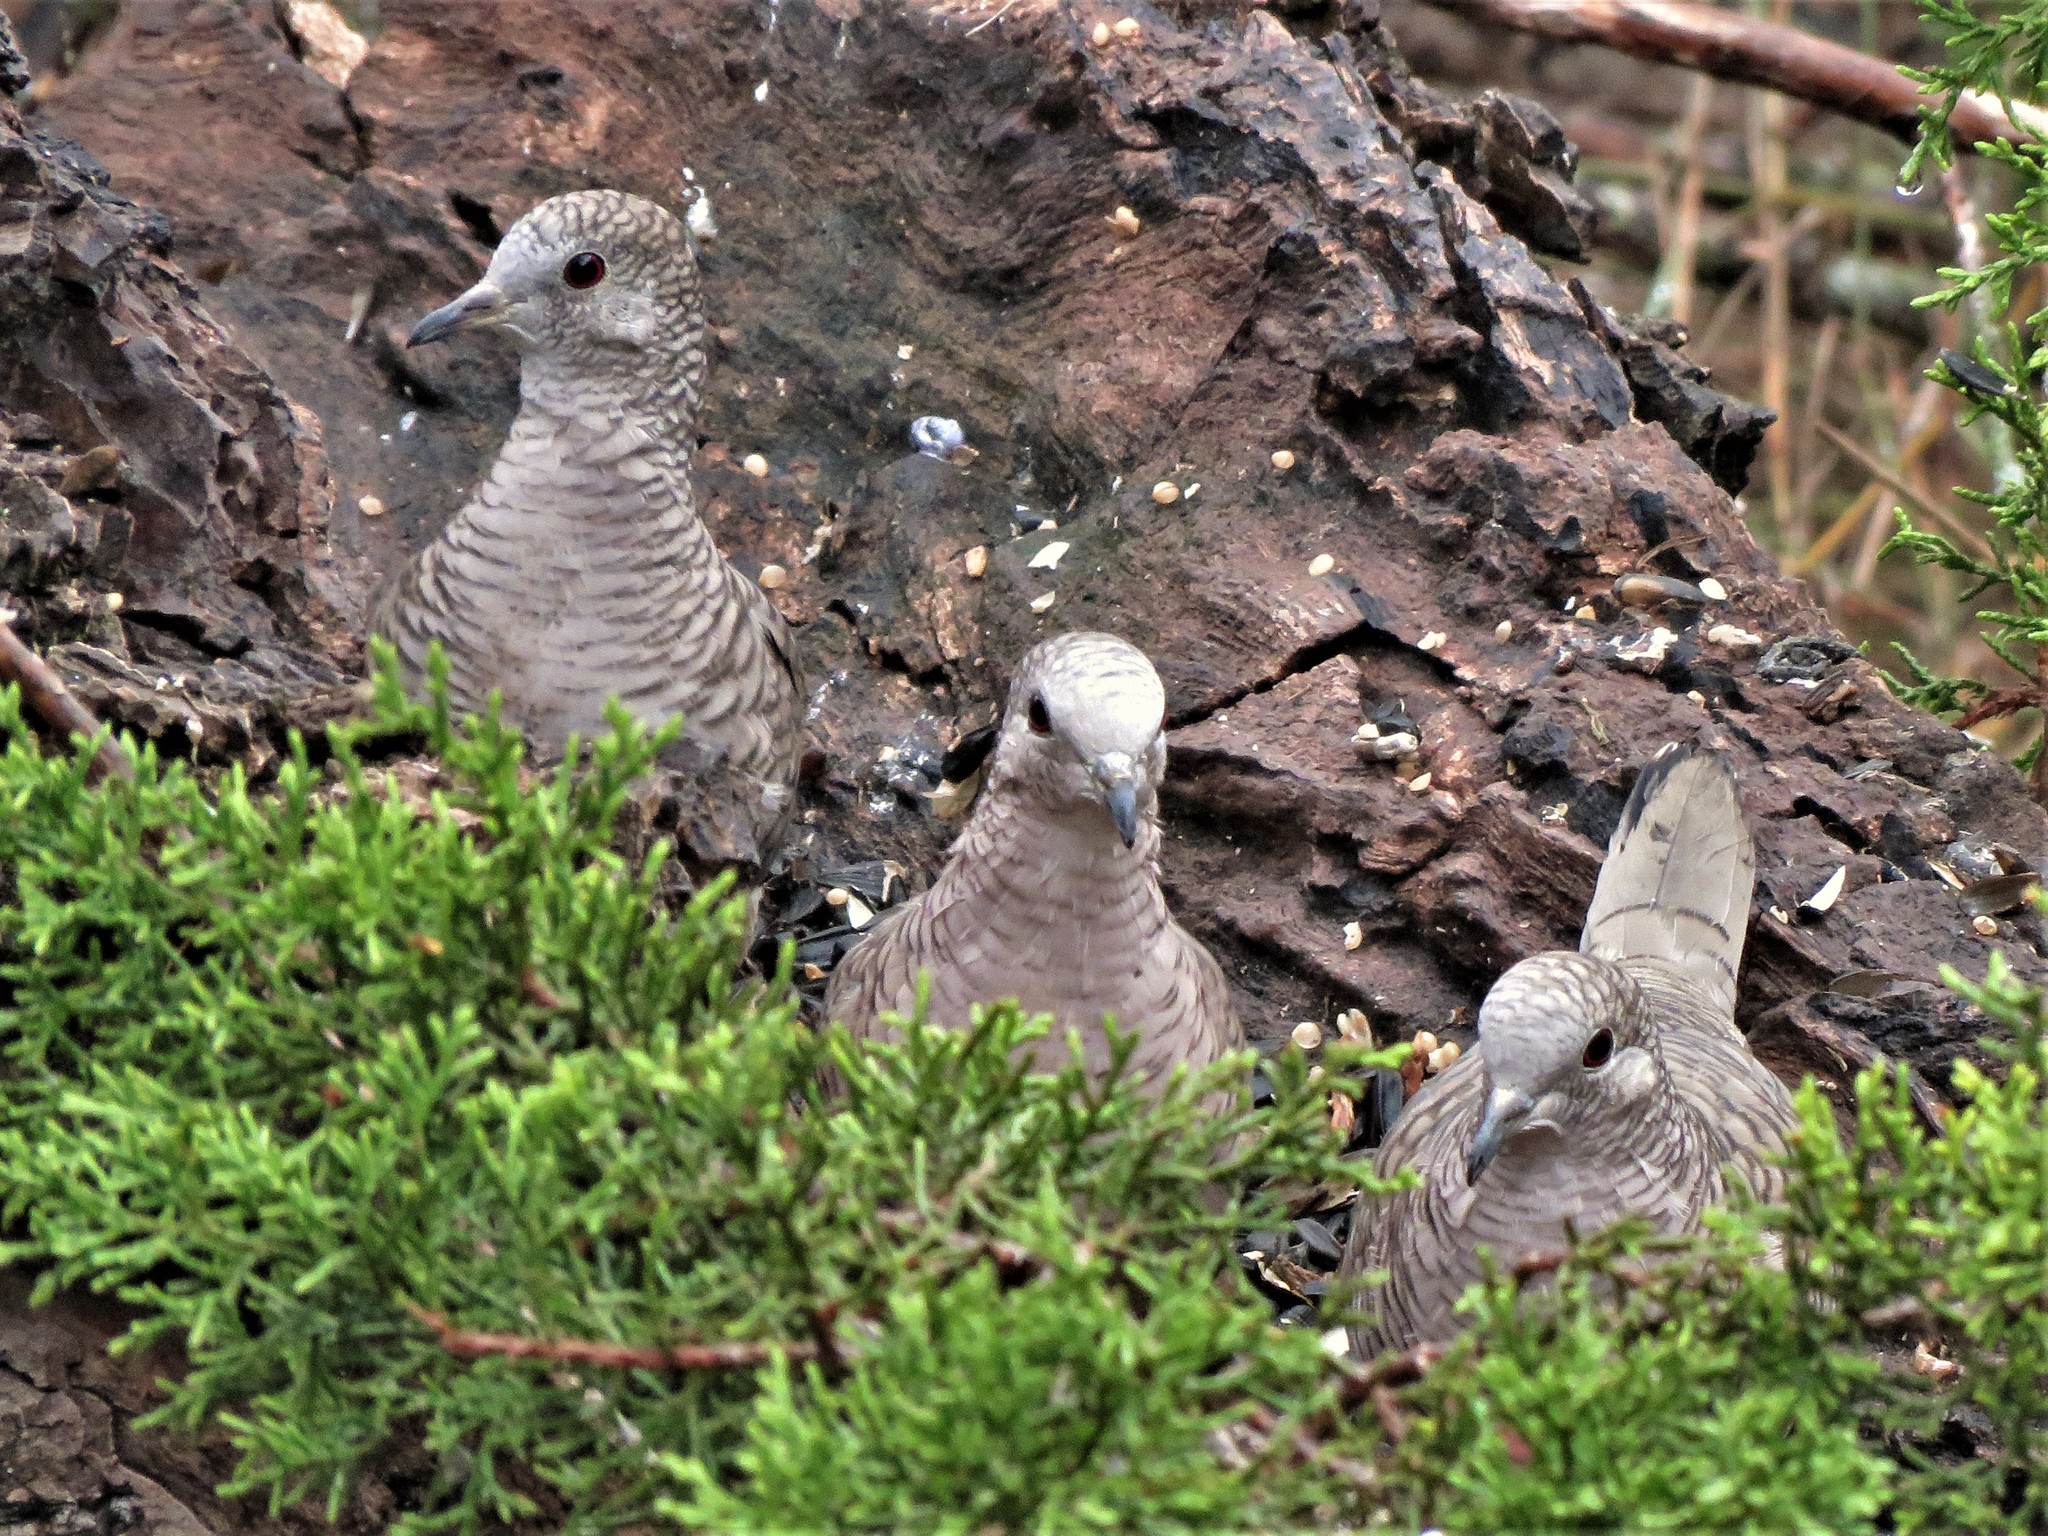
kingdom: Animalia
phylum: Chordata
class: Aves
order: Columbiformes
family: Columbidae
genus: Columbina
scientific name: Columbina inca
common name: Inca dove
